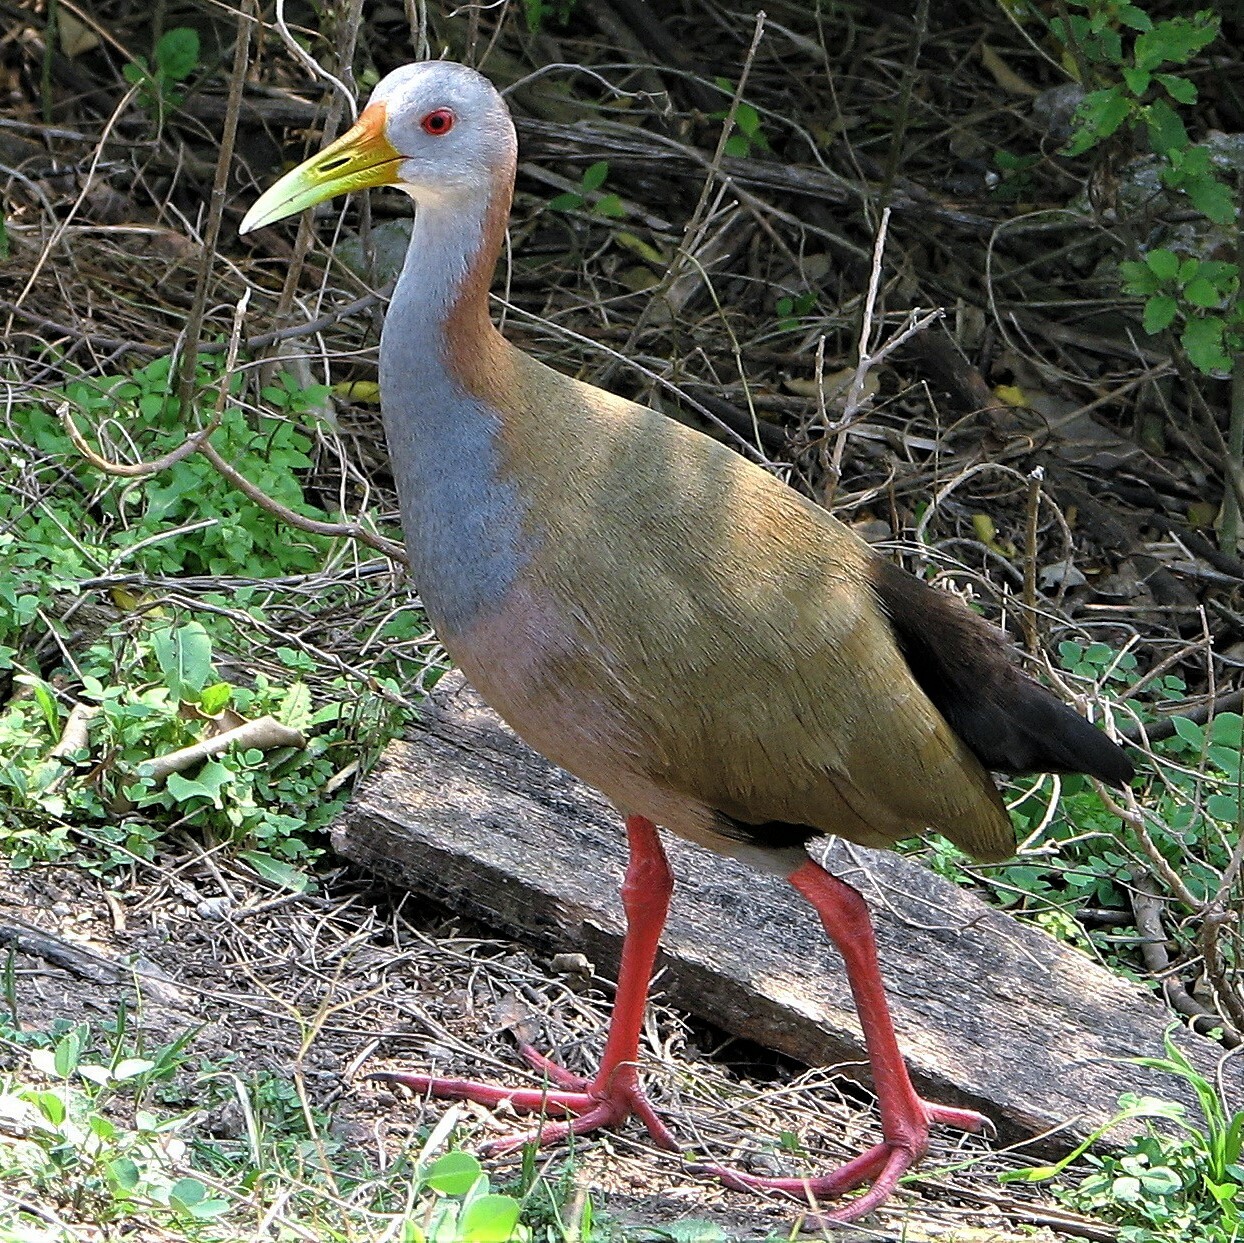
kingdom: Animalia
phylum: Chordata
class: Aves
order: Gruiformes
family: Rallidae
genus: Aramides
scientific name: Aramides ypecaha
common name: Giant wood rail
